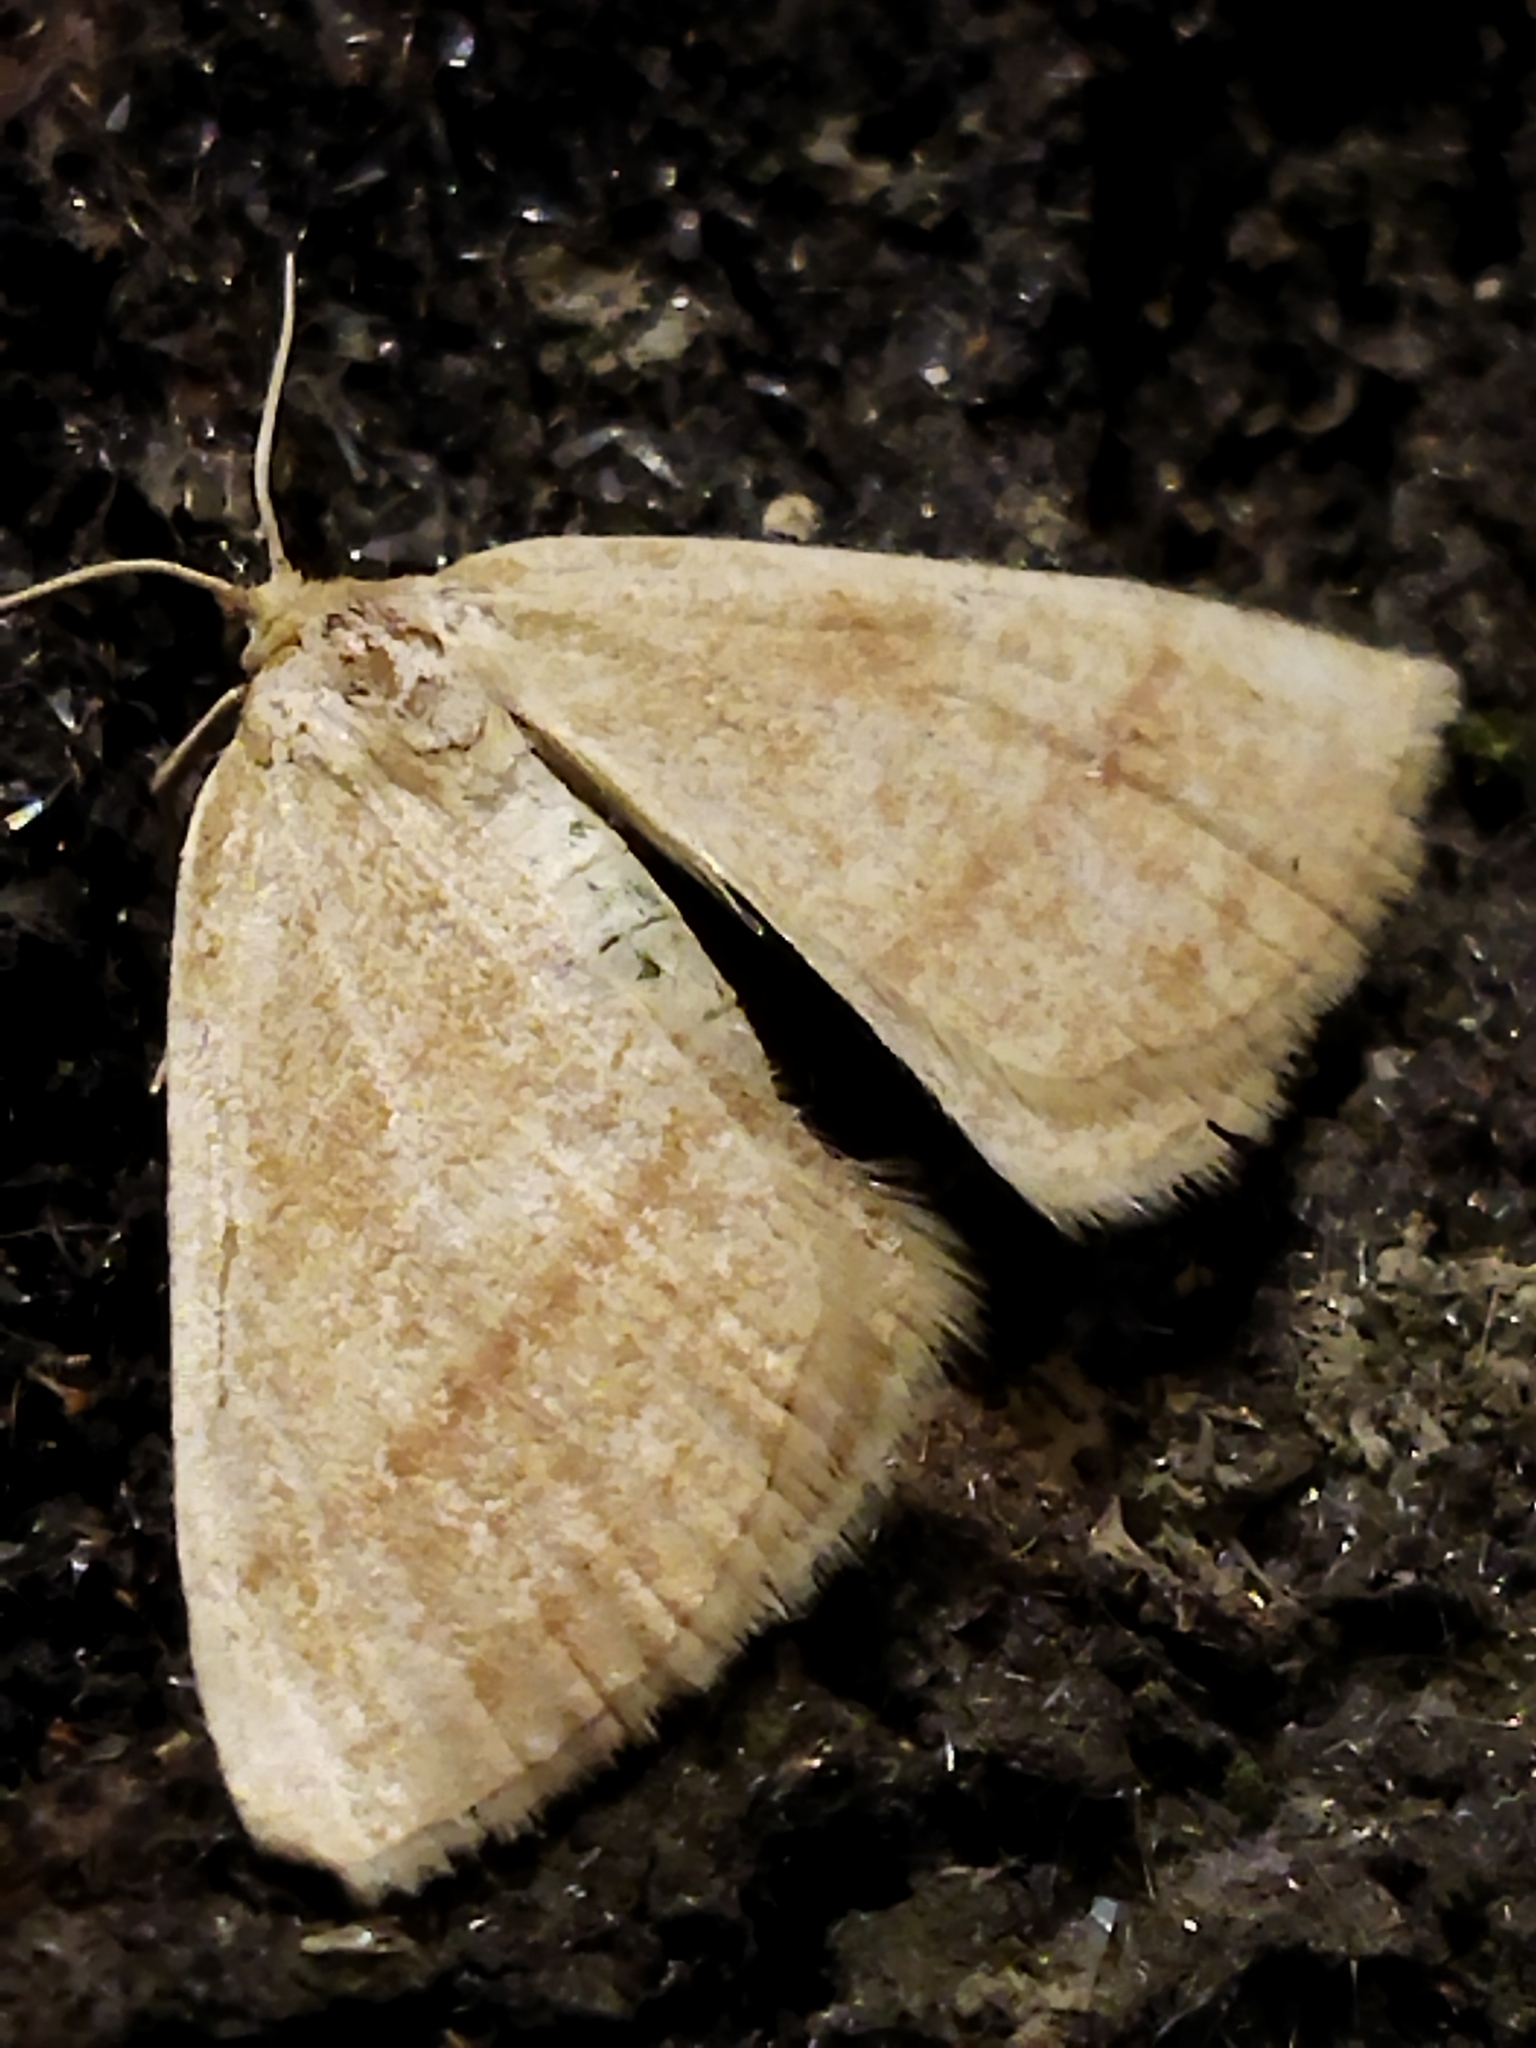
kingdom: Animalia
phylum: Arthropoda
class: Insecta
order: Lepidoptera
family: Geometridae
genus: Aplasta
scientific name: Aplasta ononaria
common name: Rest harrow
